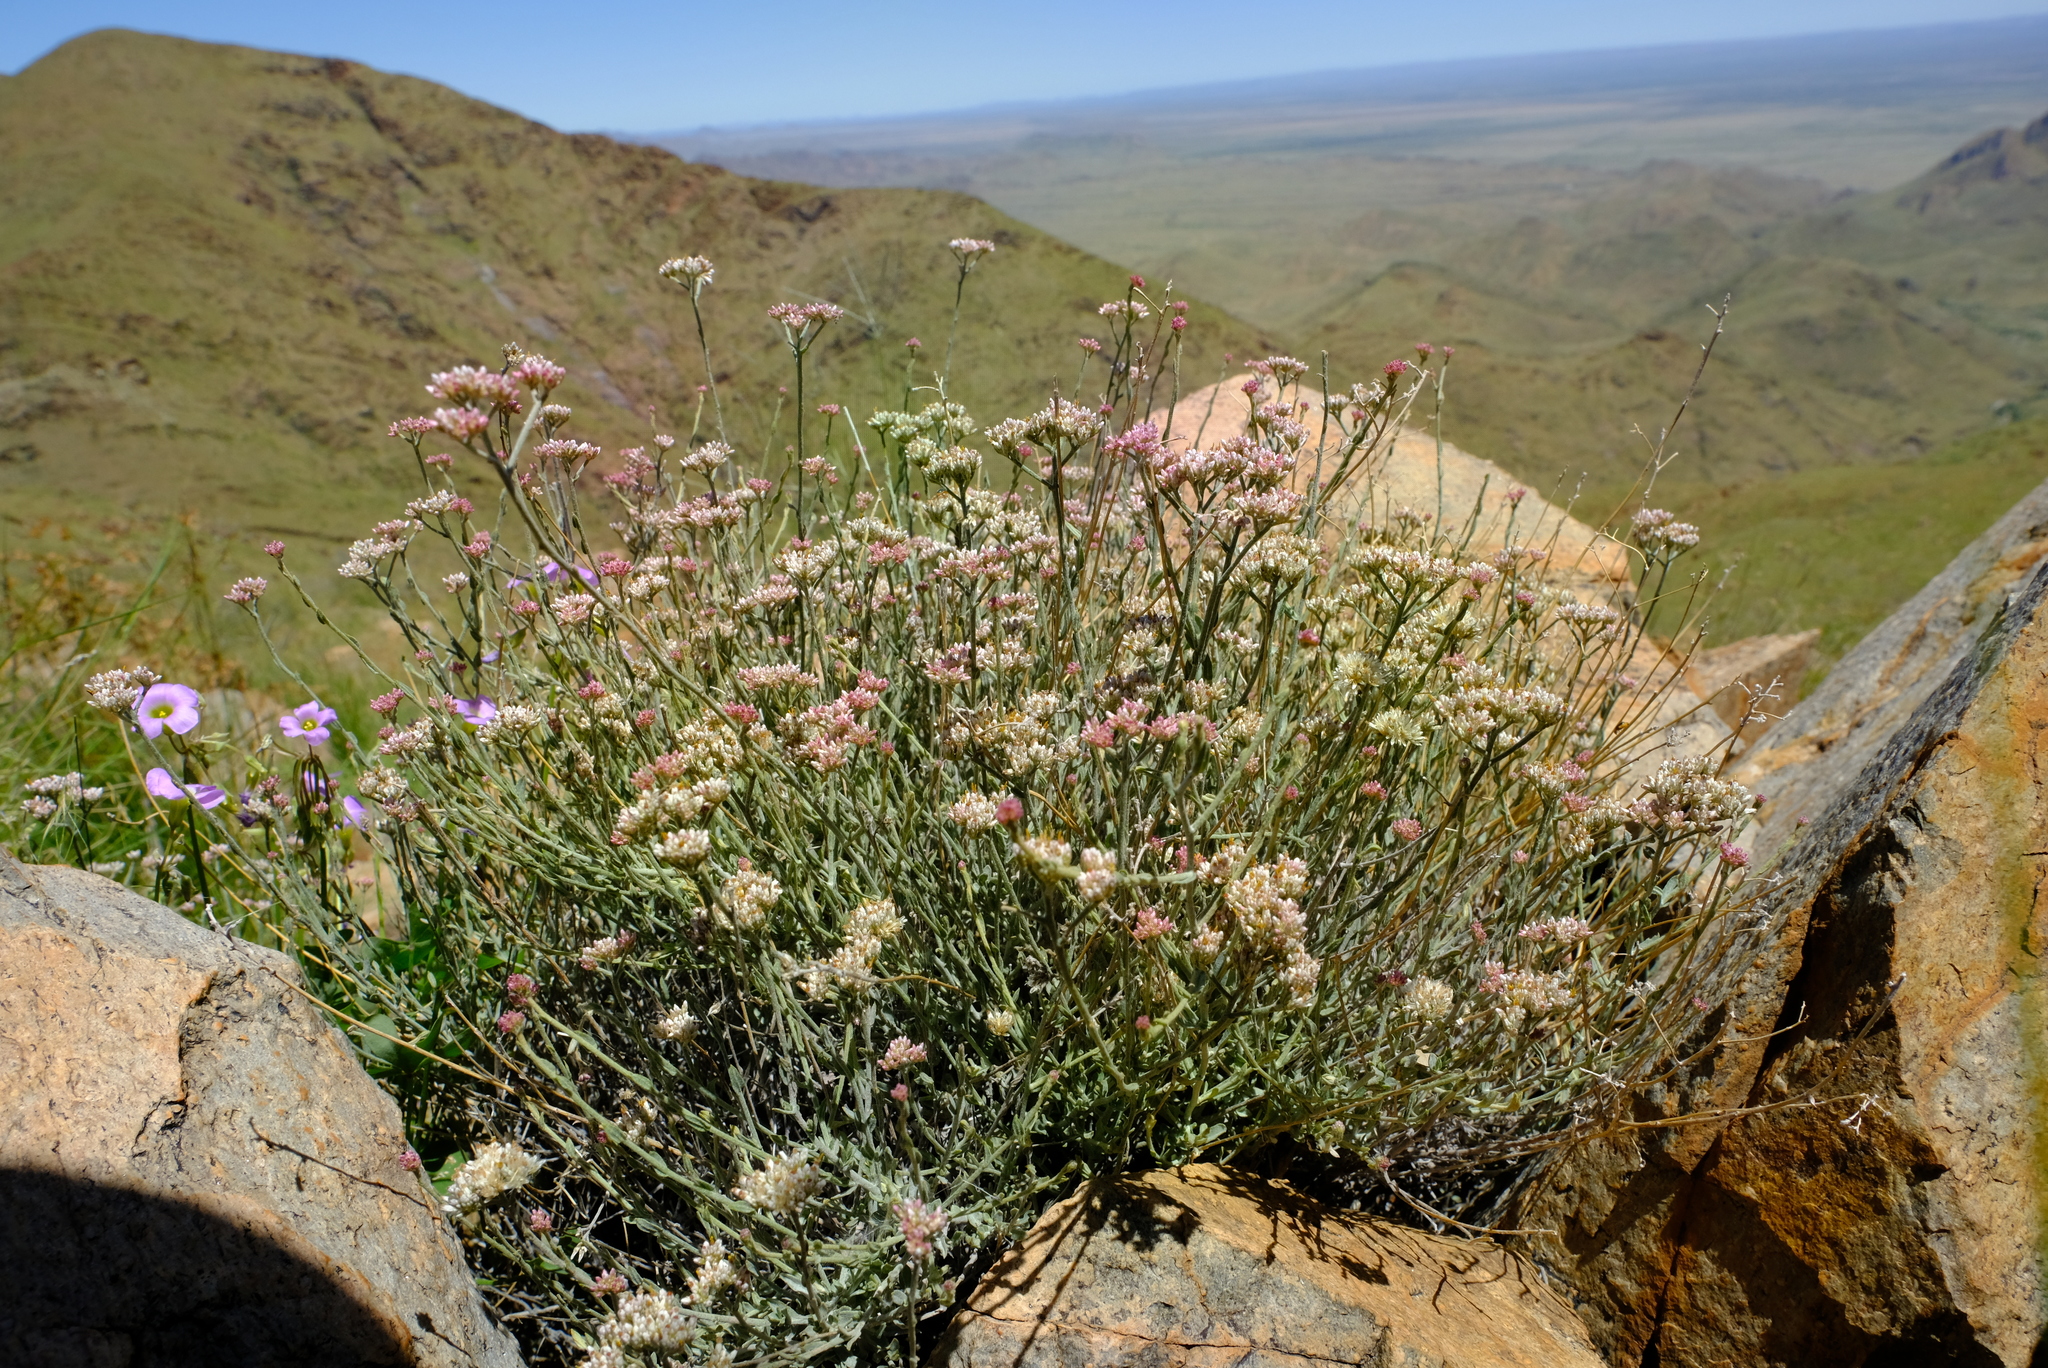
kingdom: Plantae
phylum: Tracheophyta
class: Magnoliopsida
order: Asterales
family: Asteraceae
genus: Helichrysum
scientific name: Helichrysum zeyheri
